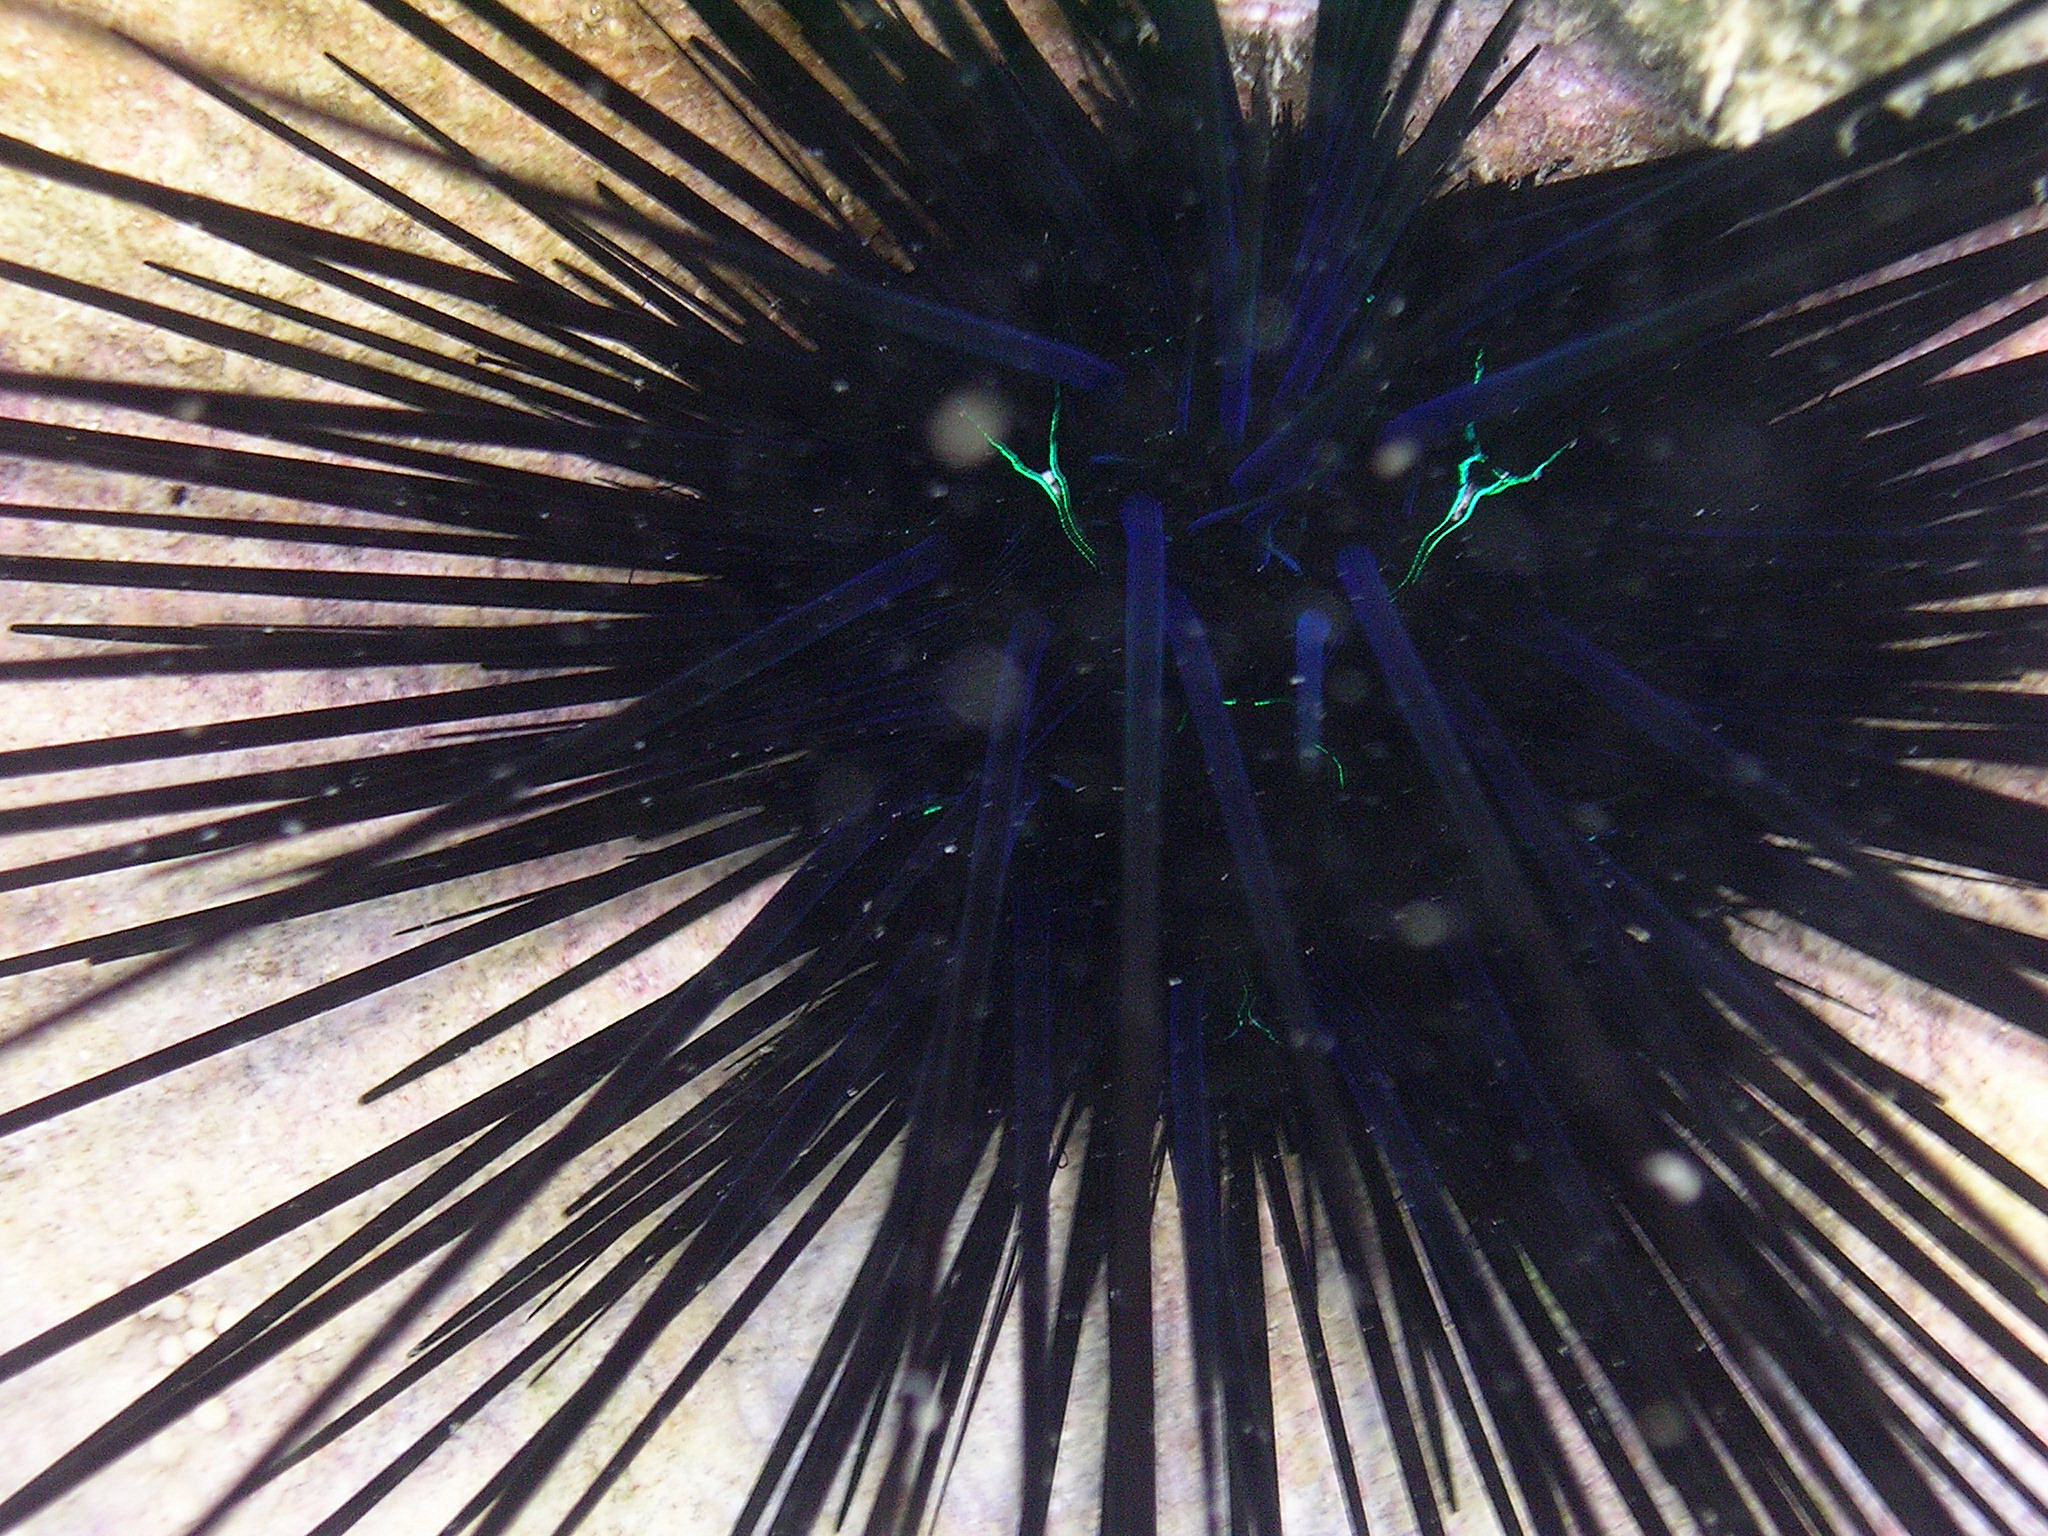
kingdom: Animalia
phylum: Echinodermata
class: Echinoidea
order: Diadematoida
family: Diadematidae
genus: Diadema
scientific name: Diadema savignyi
